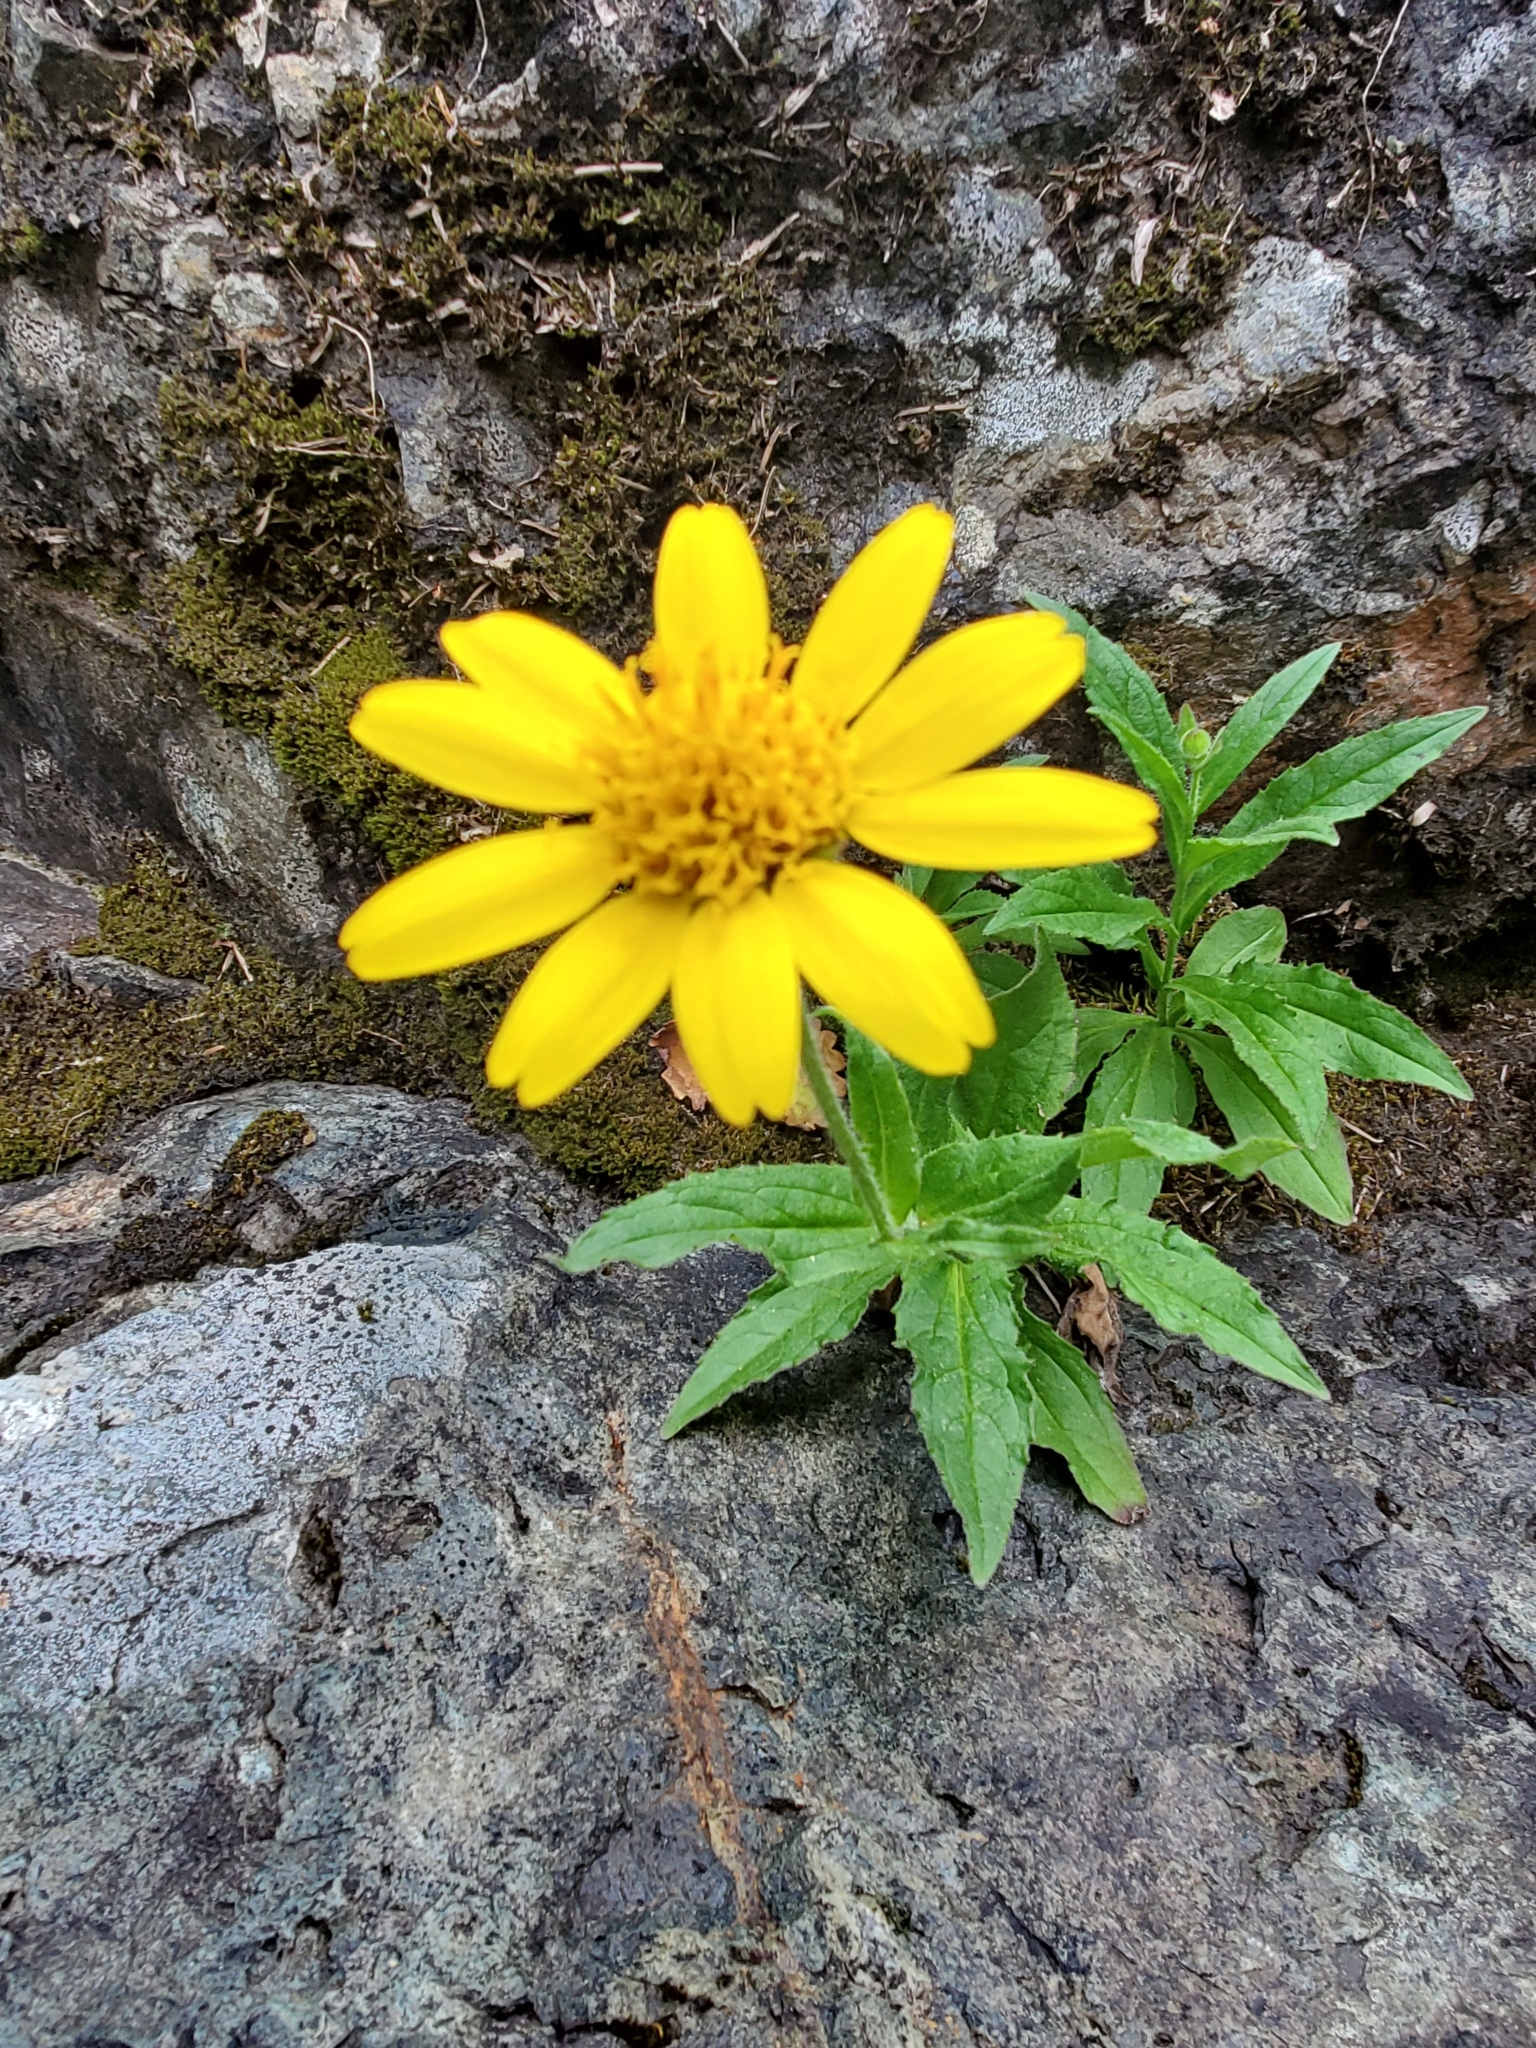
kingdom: Plantae
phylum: Tracheophyta
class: Magnoliopsida
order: Asterales
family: Asteraceae
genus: Arnica
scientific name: Arnica latifolia
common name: Arnica
